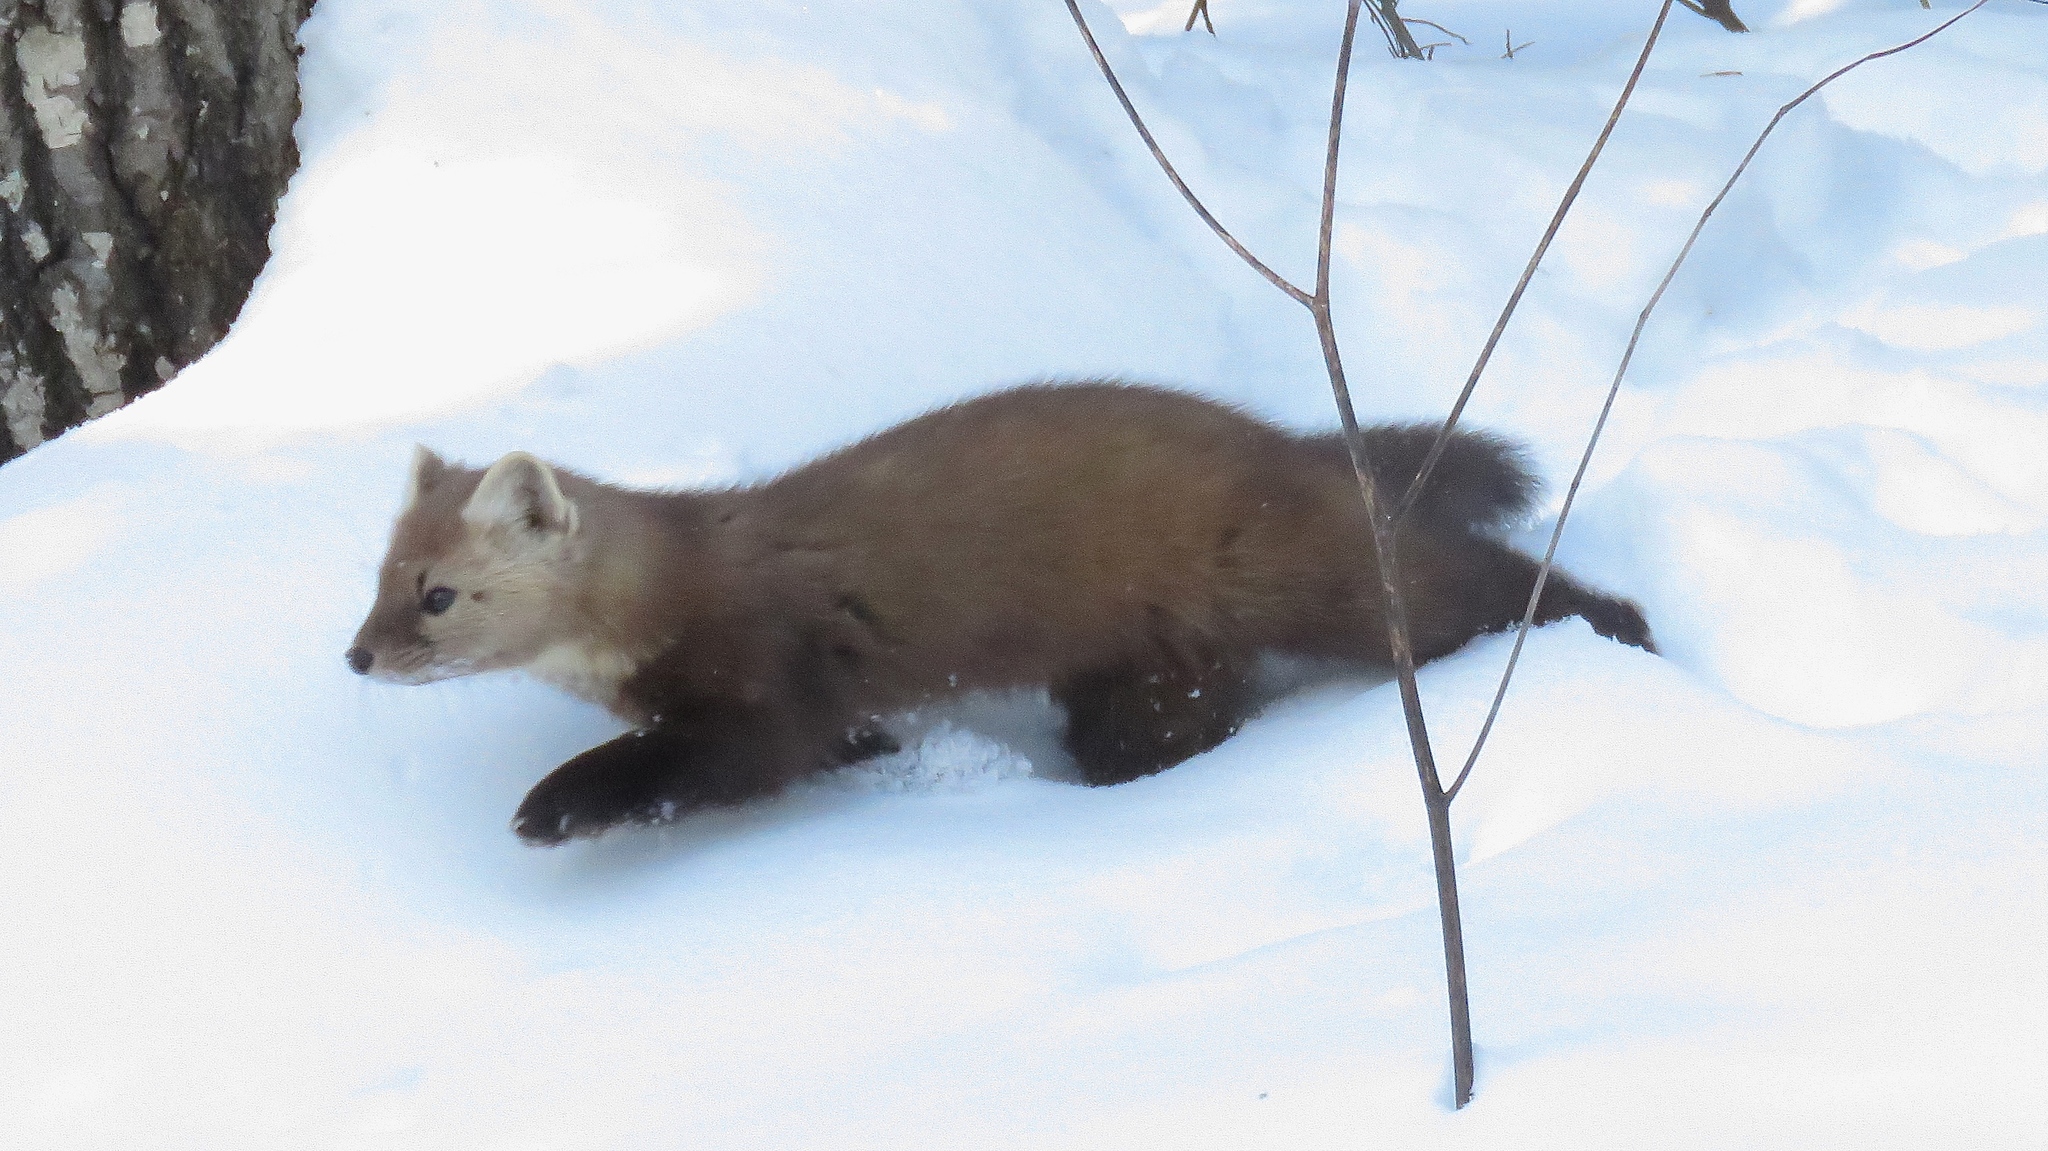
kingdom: Animalia
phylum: Chordata
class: Mammalia
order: Carnivora
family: Mustelidae
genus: Martes
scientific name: Martes americana
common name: American marten
